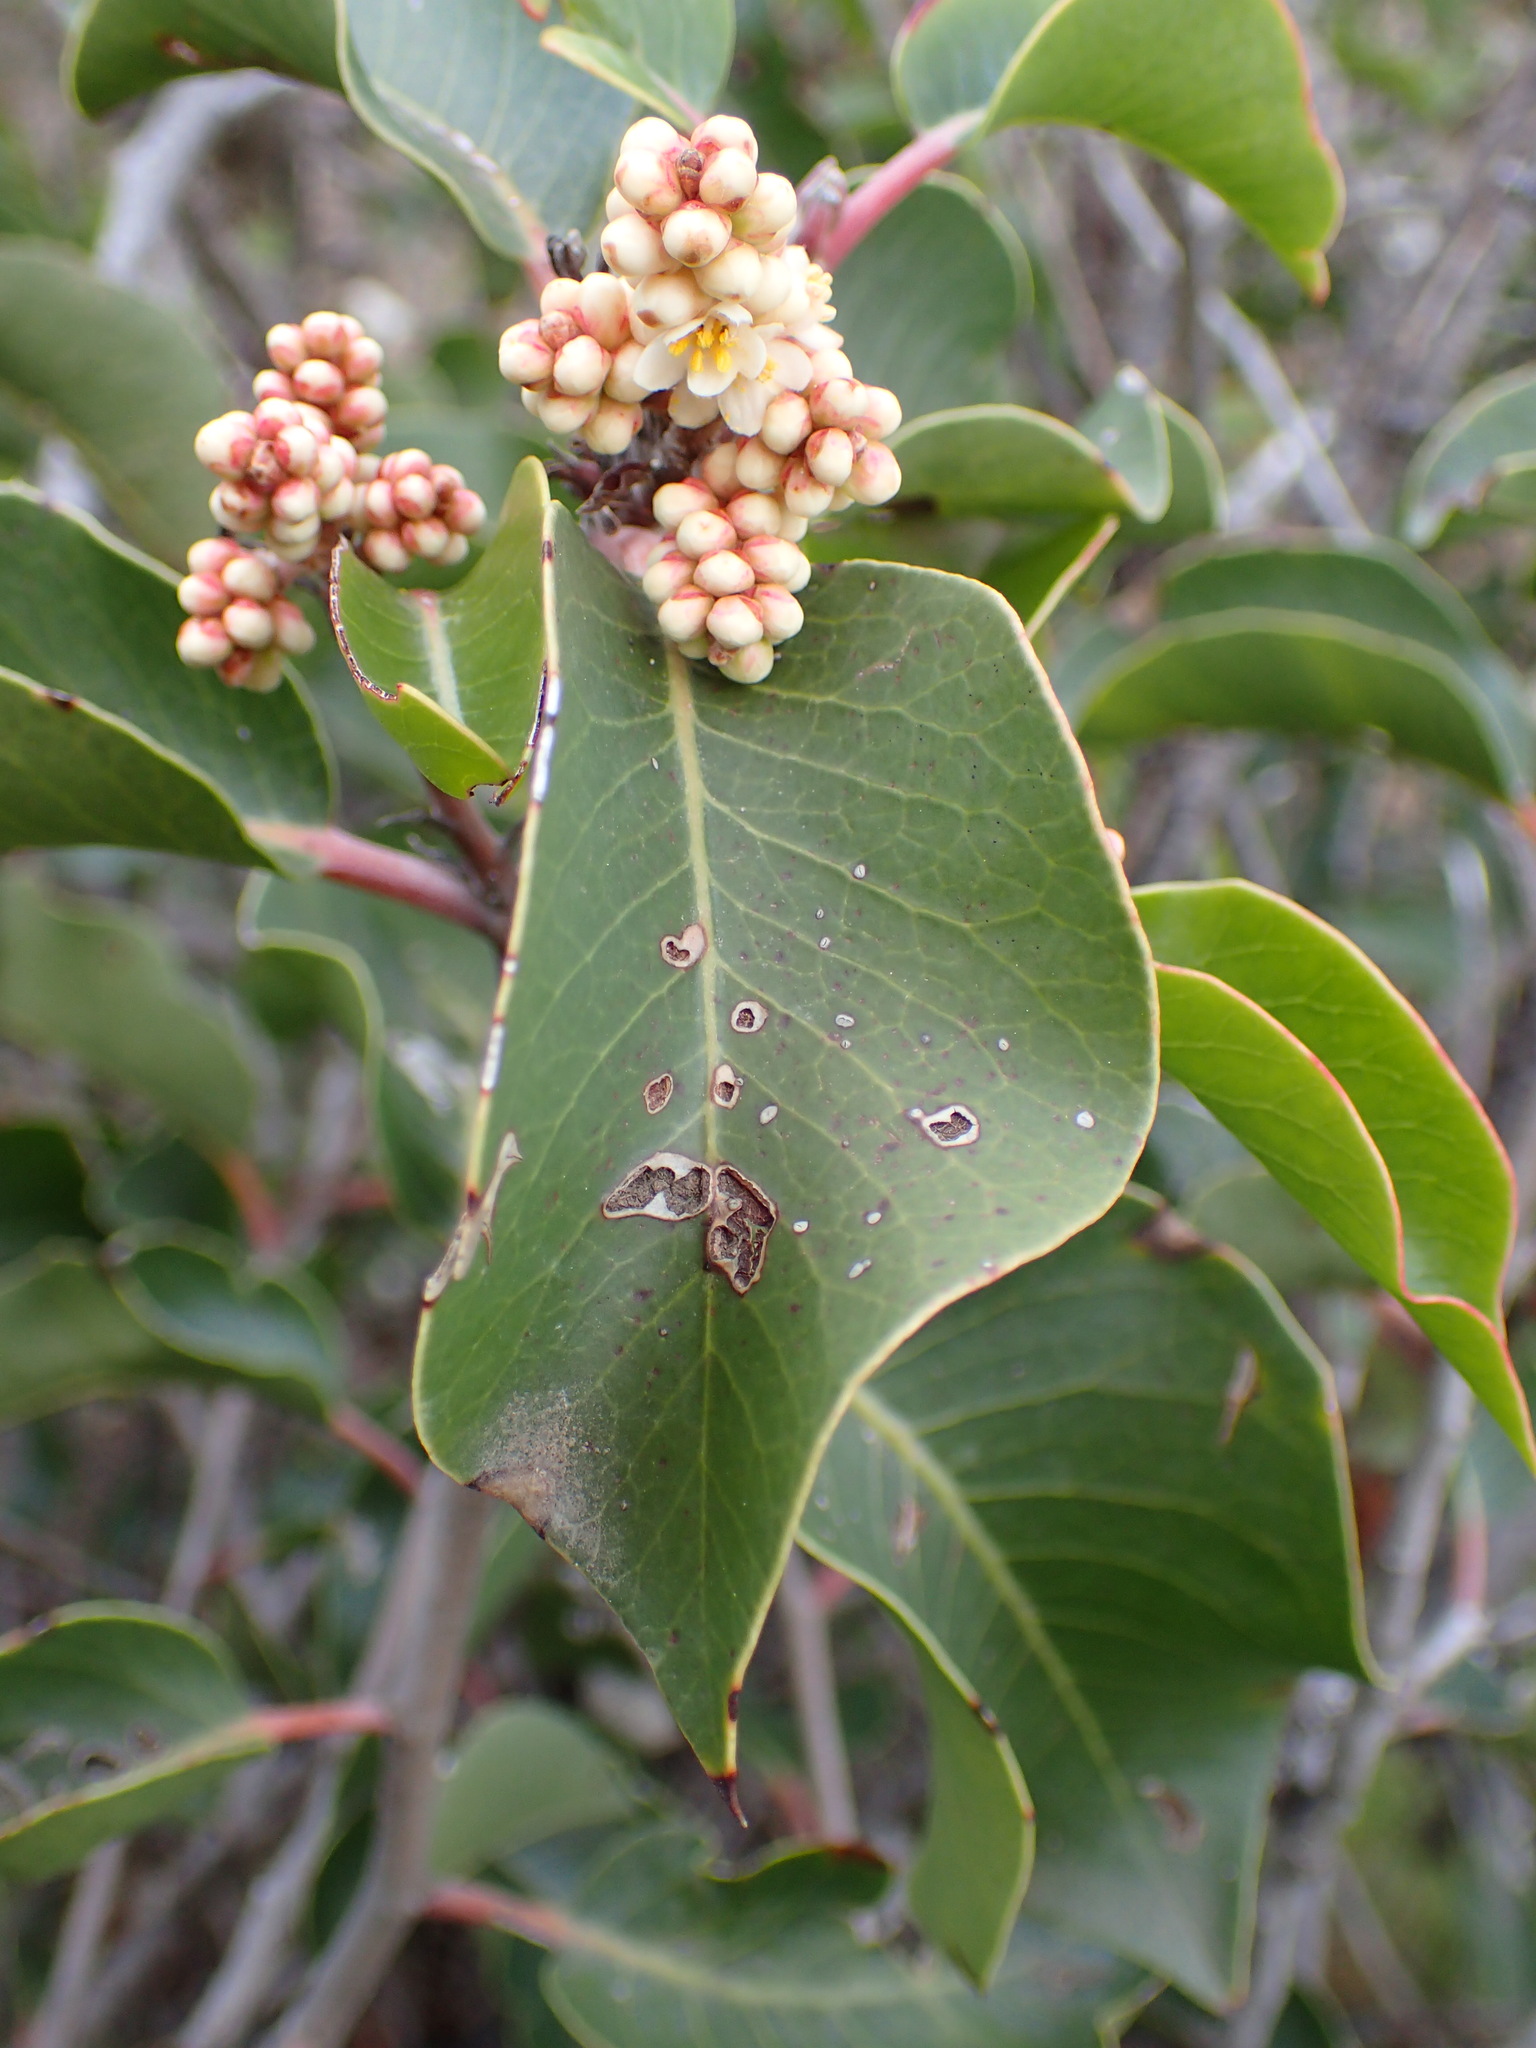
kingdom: Plantae
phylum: Tracheophyta
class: Magnoliopsida
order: Sapindales
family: Anacardiaceae
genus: Rhus
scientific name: Rhus ovata
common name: Sugar sumac
